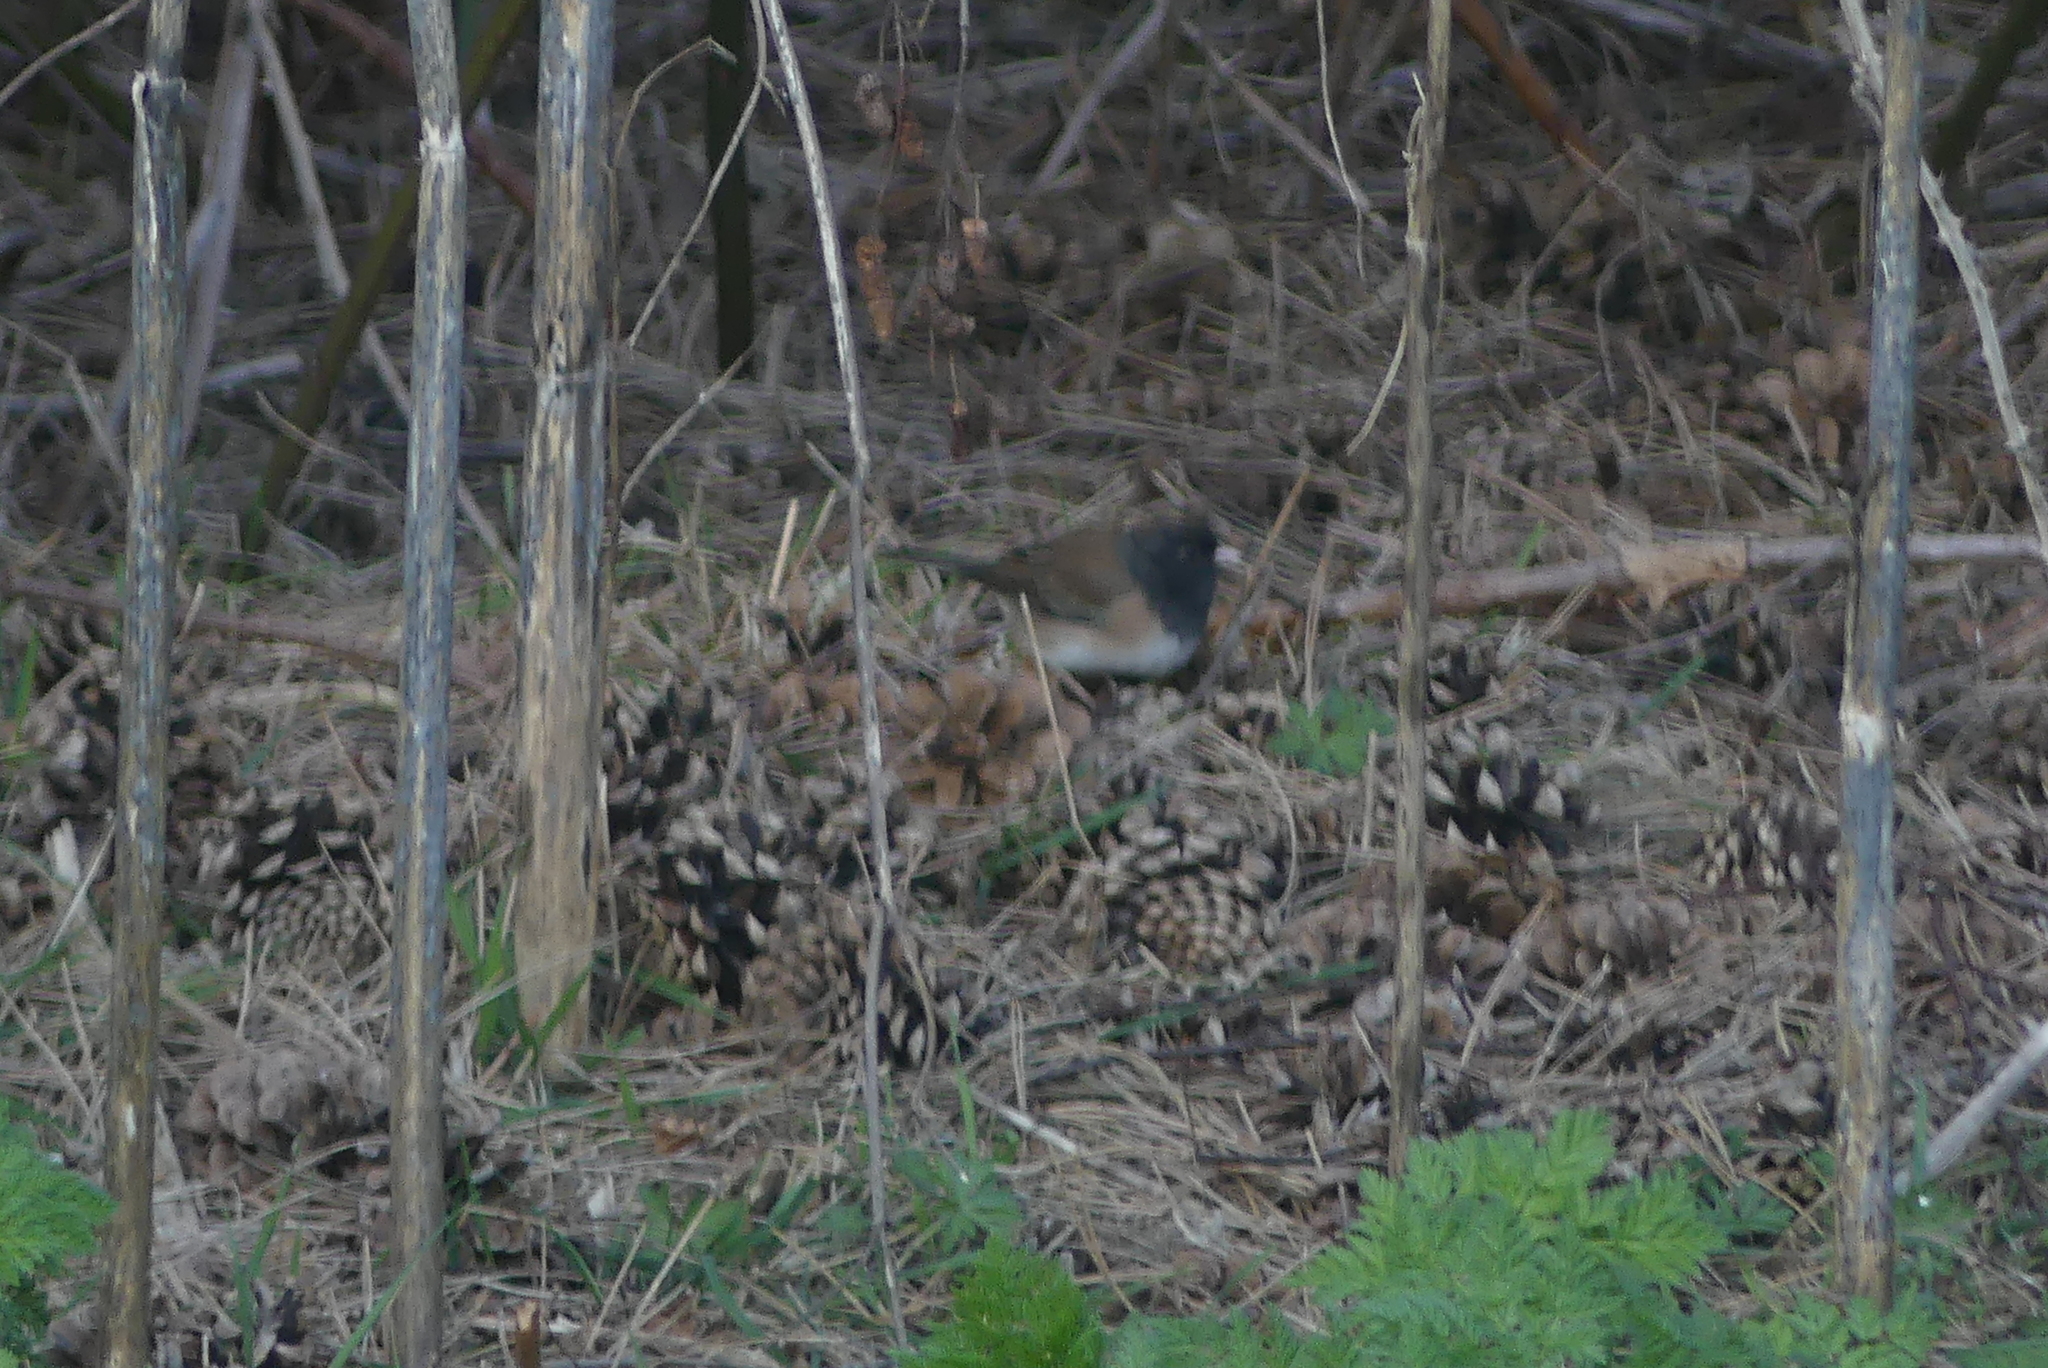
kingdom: Animalia
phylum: Chordata
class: Aves
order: Passeriformes
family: Passerellidae
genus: Junco
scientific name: Junco hyemalis
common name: Dark-eyed junco
